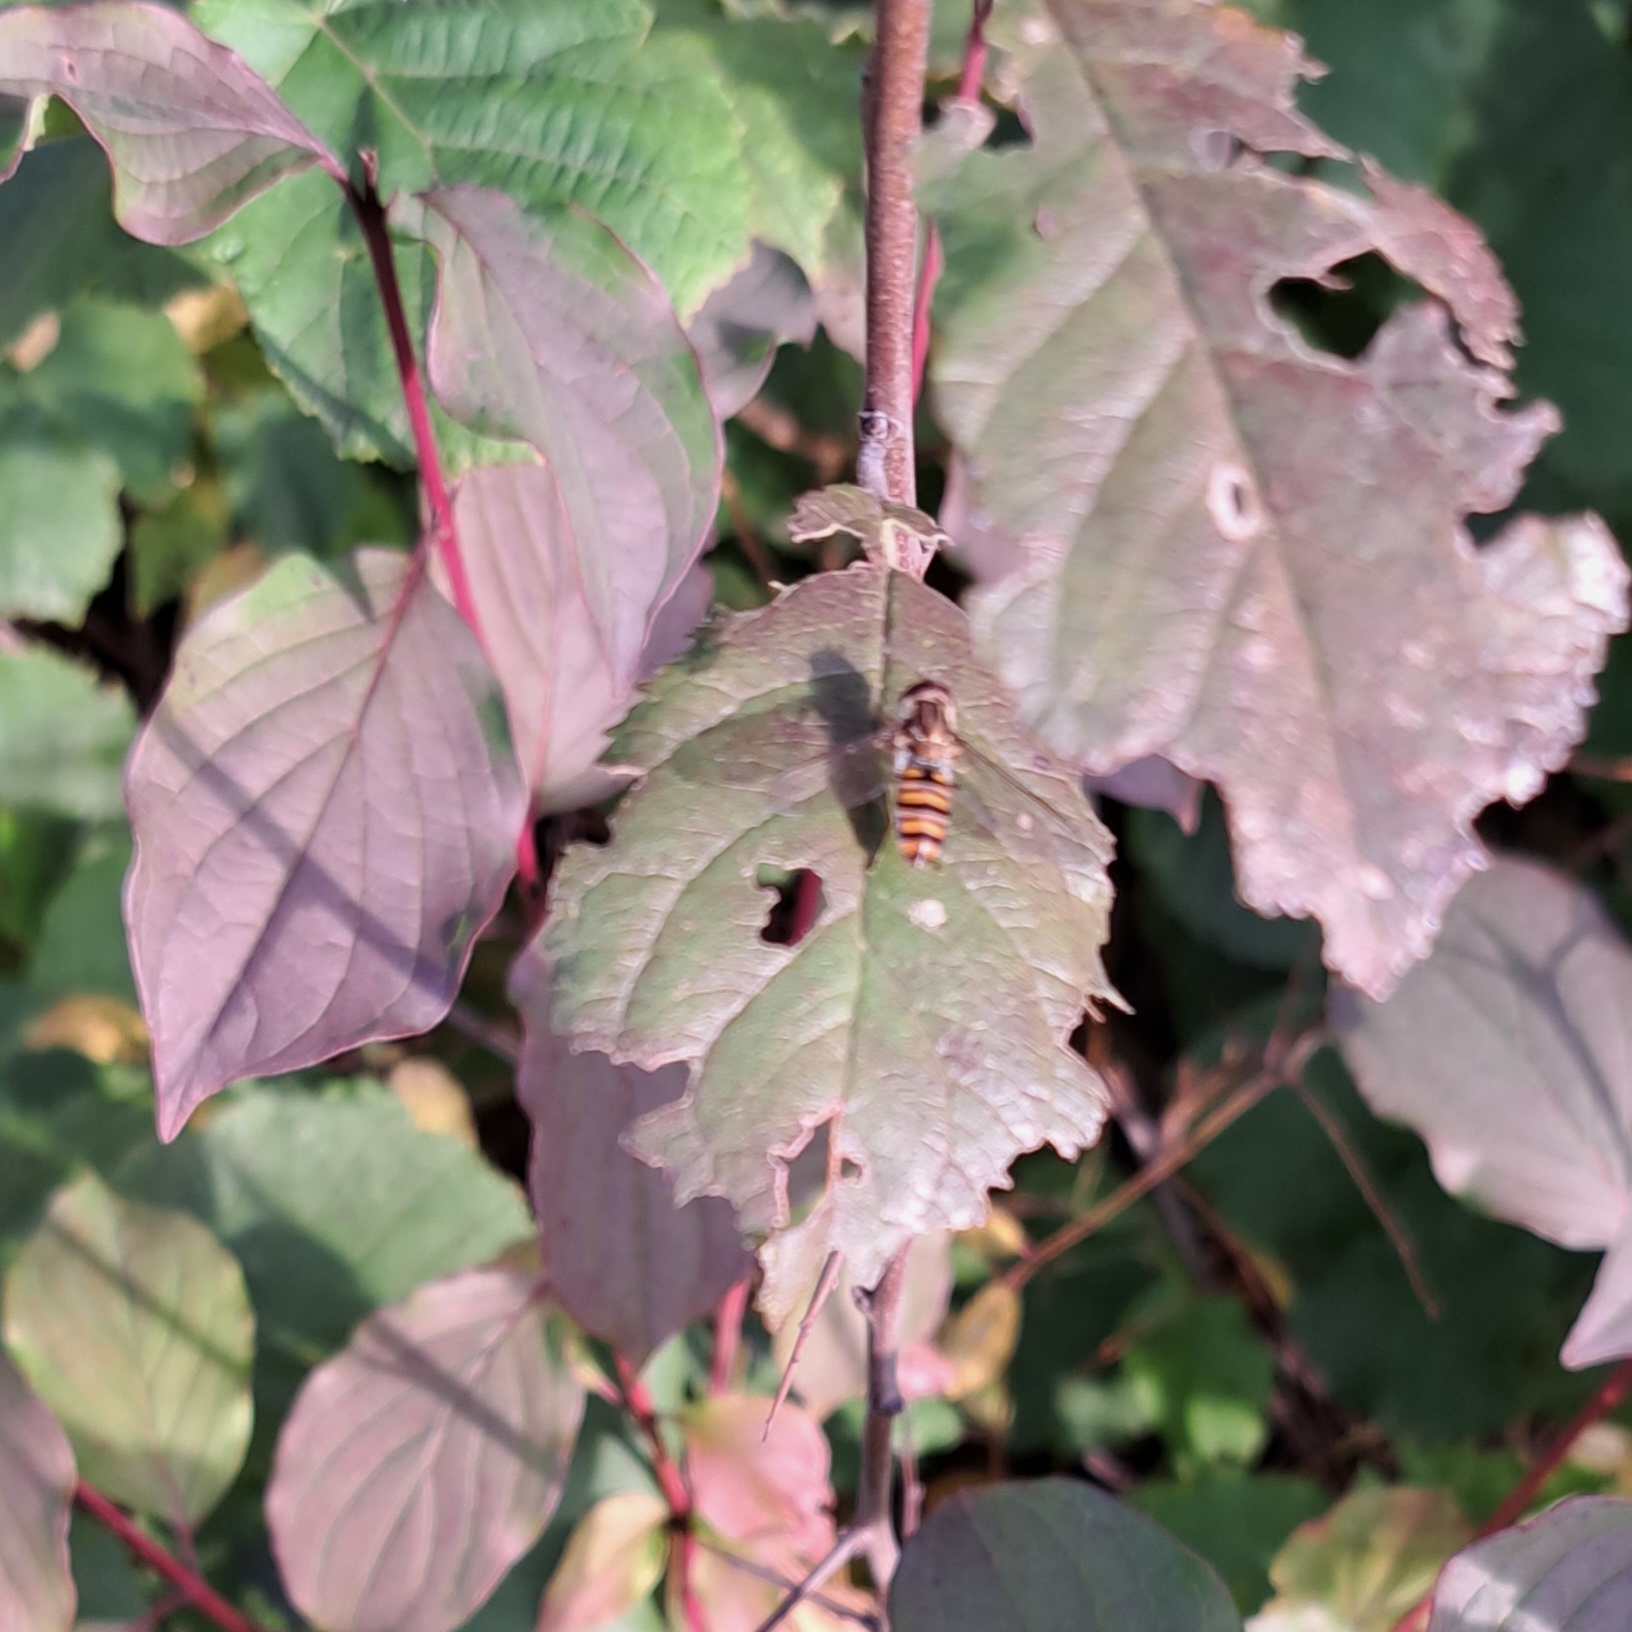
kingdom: Animalia
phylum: Arthropoda
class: Insecta
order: Diptera
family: Syrphidae
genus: Episyrphus
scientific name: Episyrphus balteatus
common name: Marmalade hoverfly
